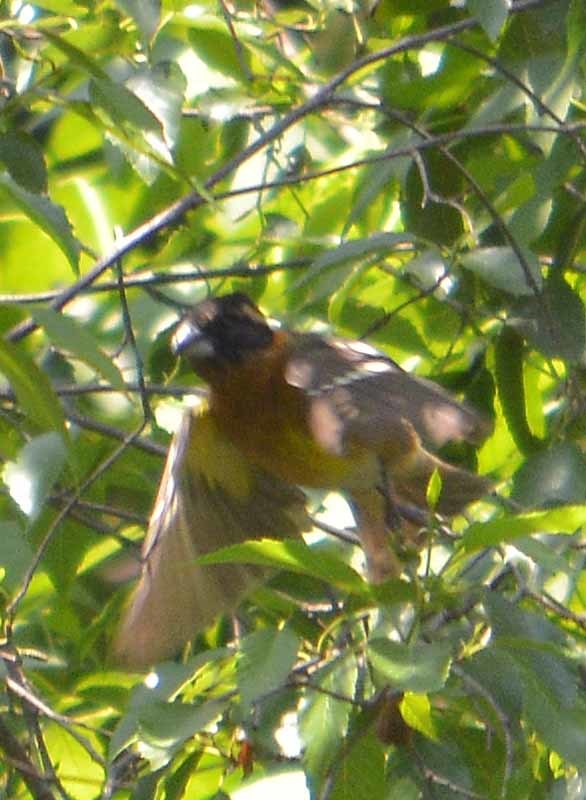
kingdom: Animalia
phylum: Chordata
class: Aves
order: Passeriformes
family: Cardinalidae
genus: Pheucticus
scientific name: Pheucticus melanocephalus
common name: Black-headed grosbeak
